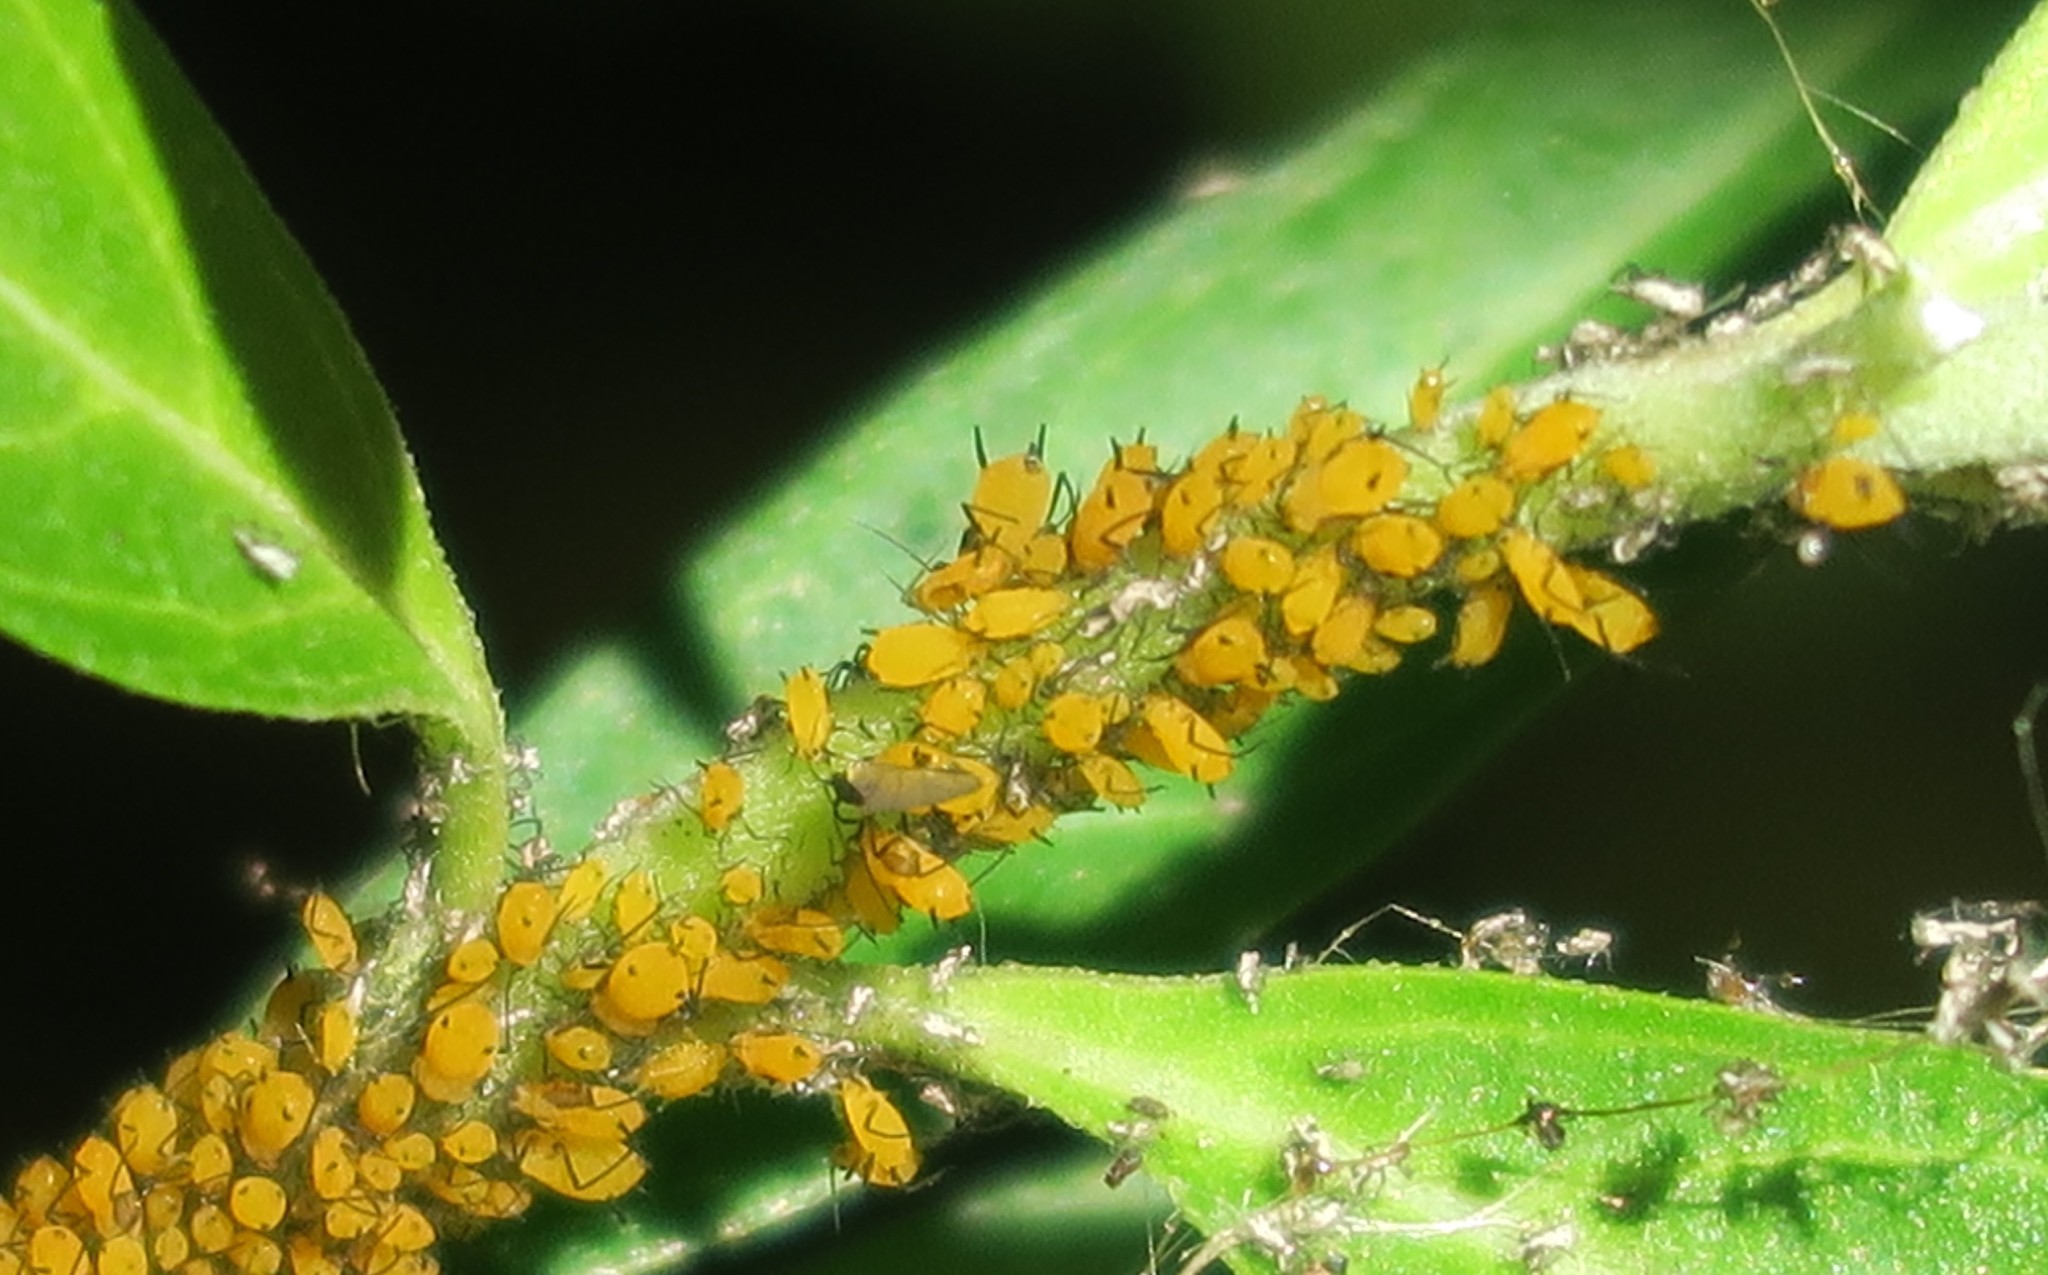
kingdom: Animalia
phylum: Arthropoda
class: Insecta
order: Hemiptera
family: Aphididae
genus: Aphis
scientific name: Aphis nerii
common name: Oleander aphid
